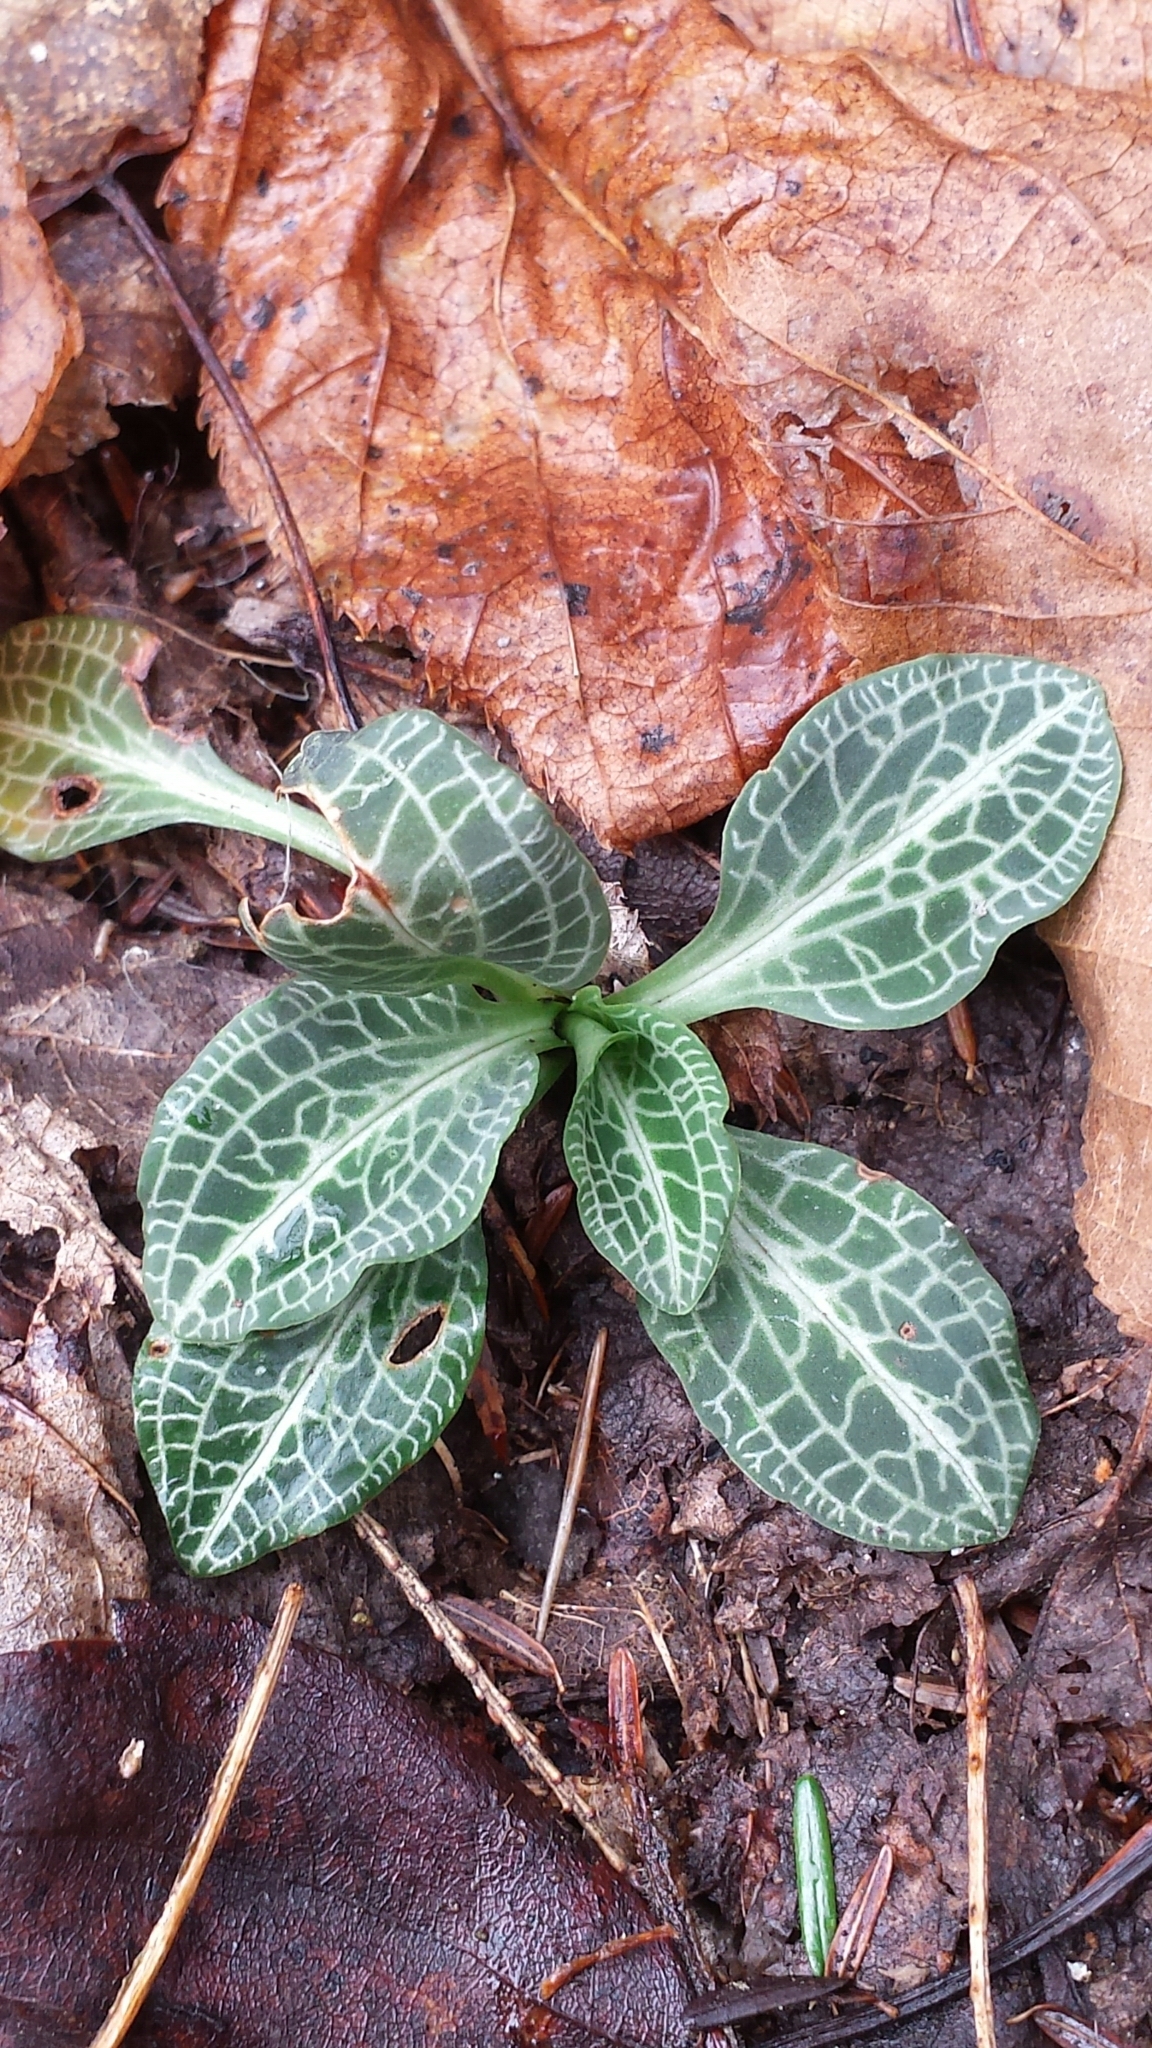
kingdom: Plantae
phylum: Tracheophyta
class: Liliopsida
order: Asparagales
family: Orchidaceae
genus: Goodyera
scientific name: Goodyera pubescens
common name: Downy rattlesnake-plantain
